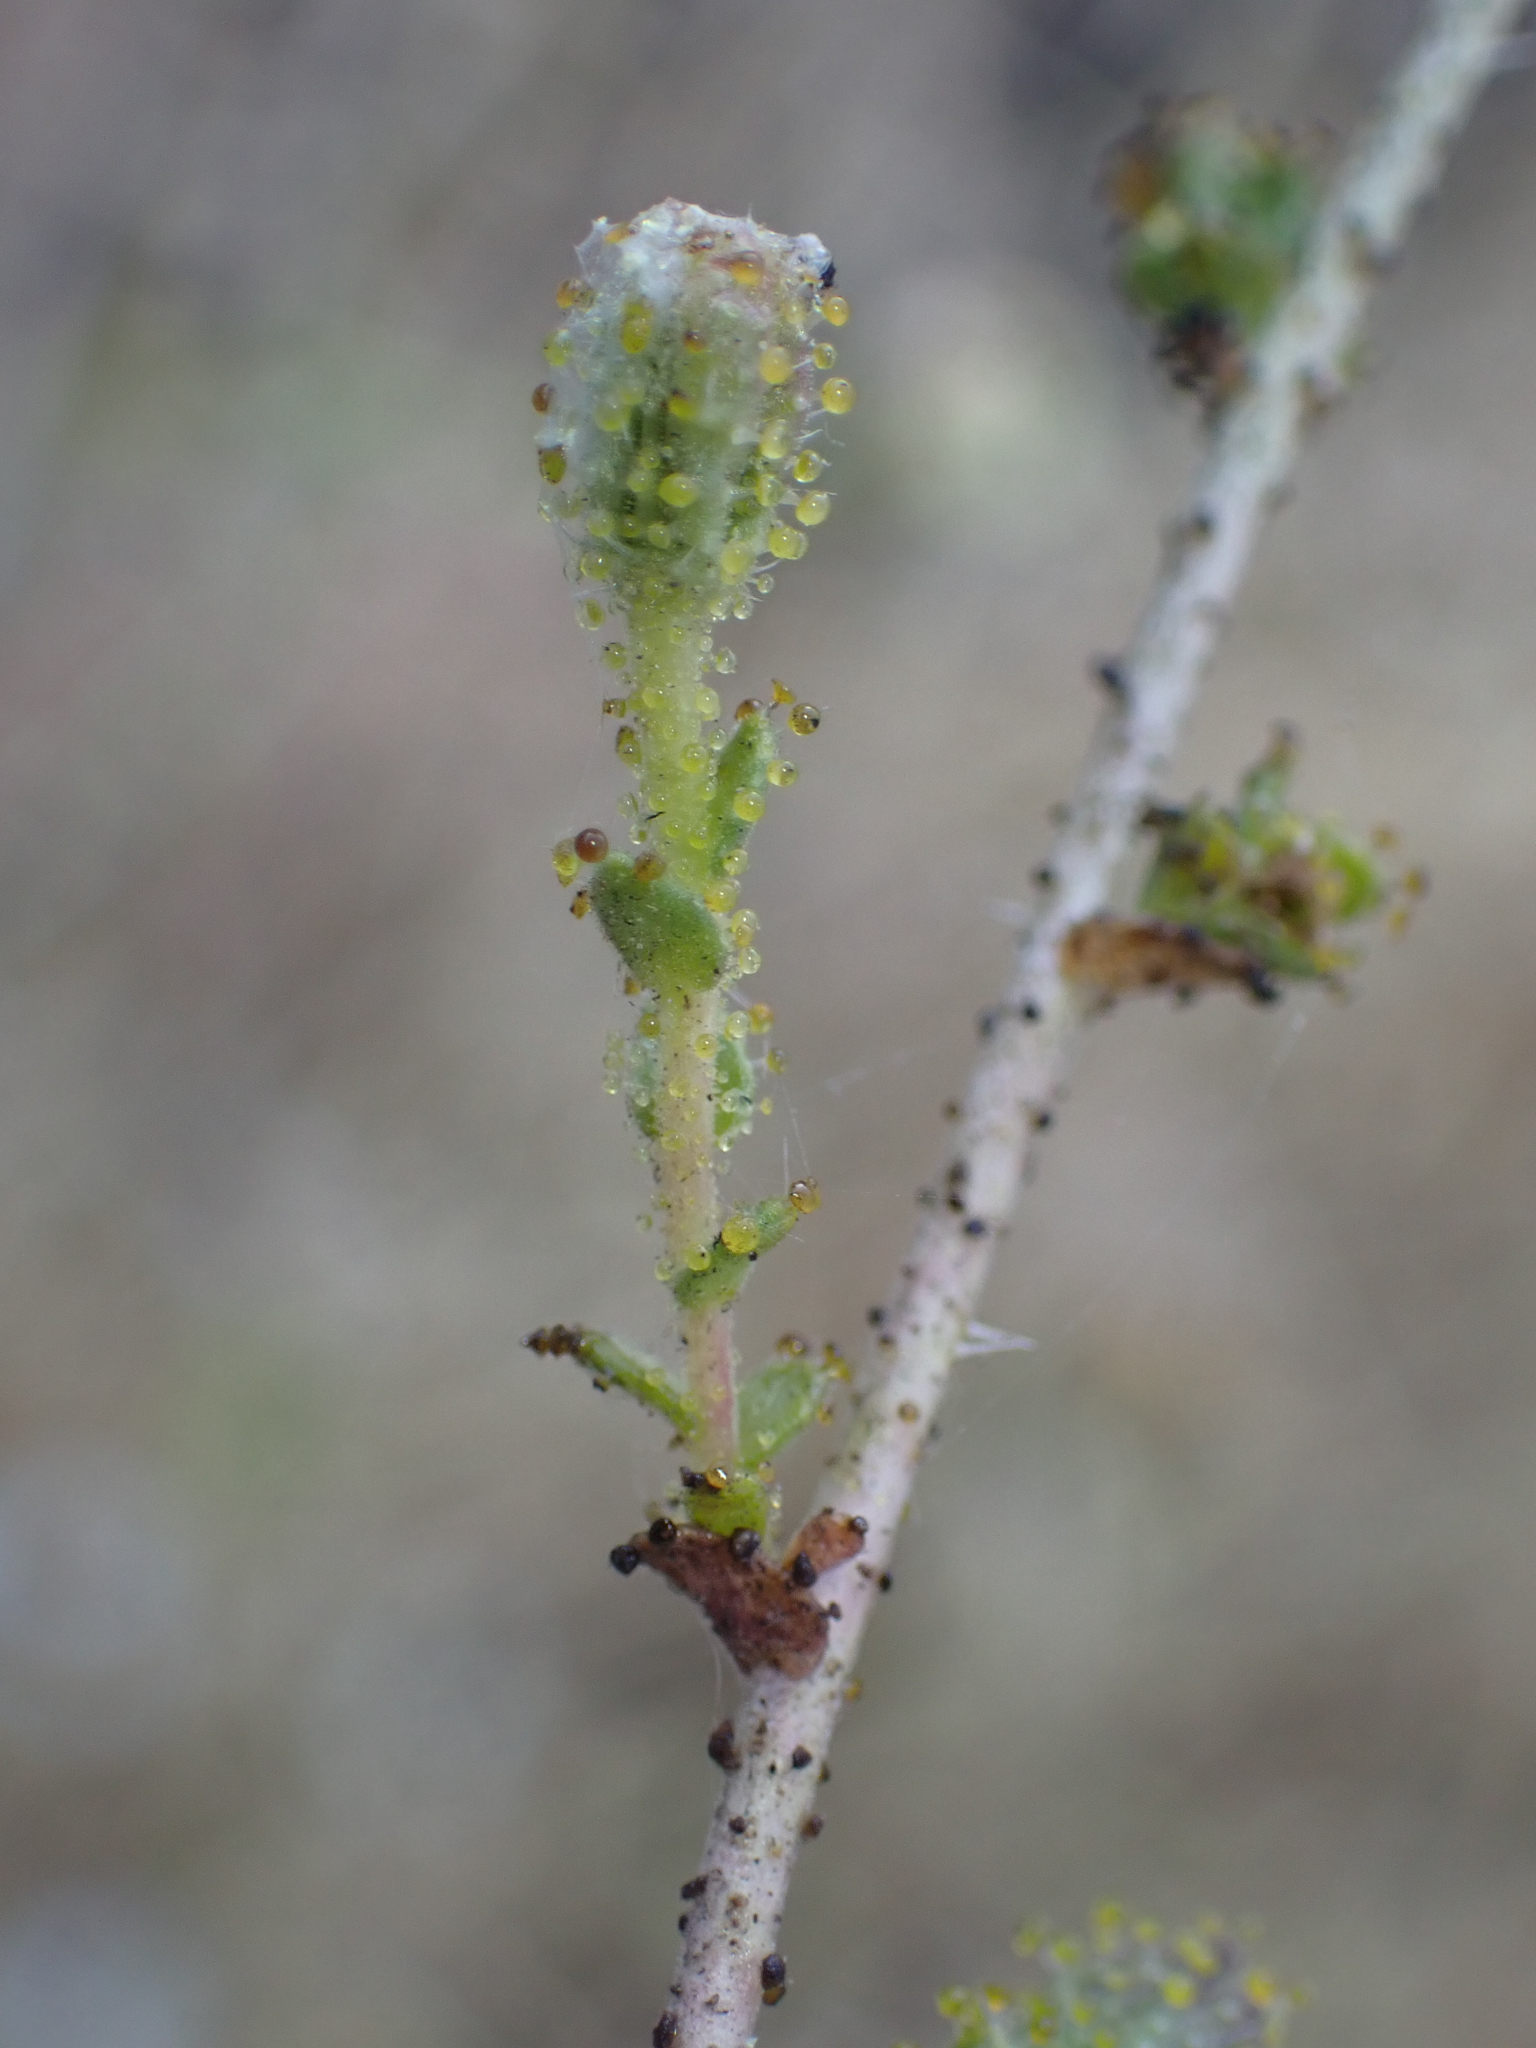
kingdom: Plantae
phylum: Tracheophyta
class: Magnoliopsida
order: Asterales
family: Asteraceae
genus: Blepharizonia
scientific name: Blepharizonia laxa
